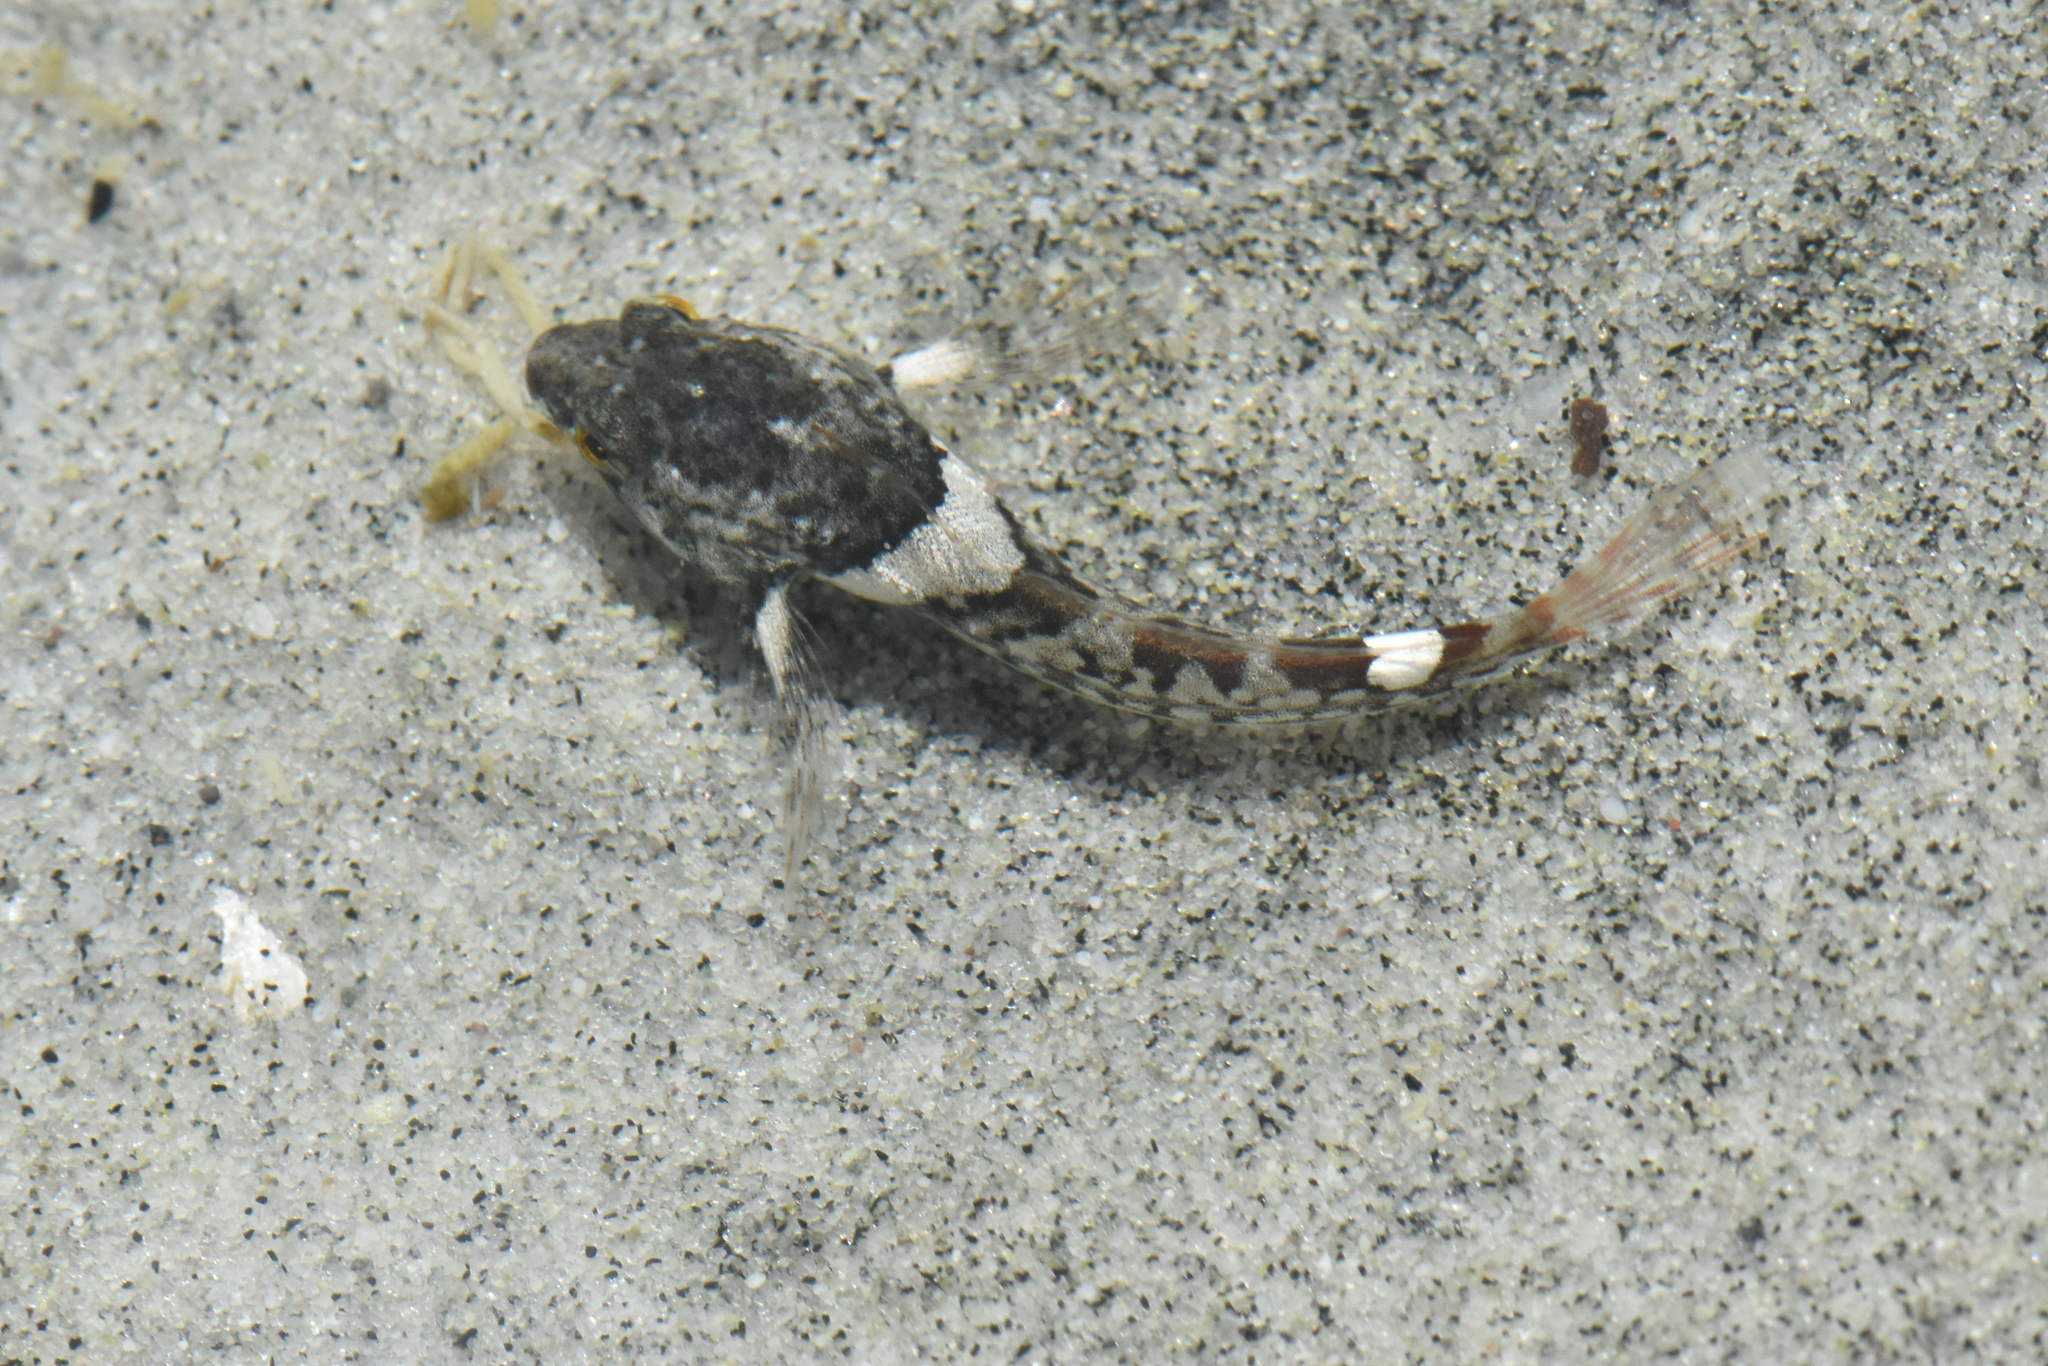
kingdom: Animalia
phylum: Chordata
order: Scorpaeniformes
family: Cottidae
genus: Oligocottus
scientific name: Oligocottus maculosus
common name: Tidepool sculpin
